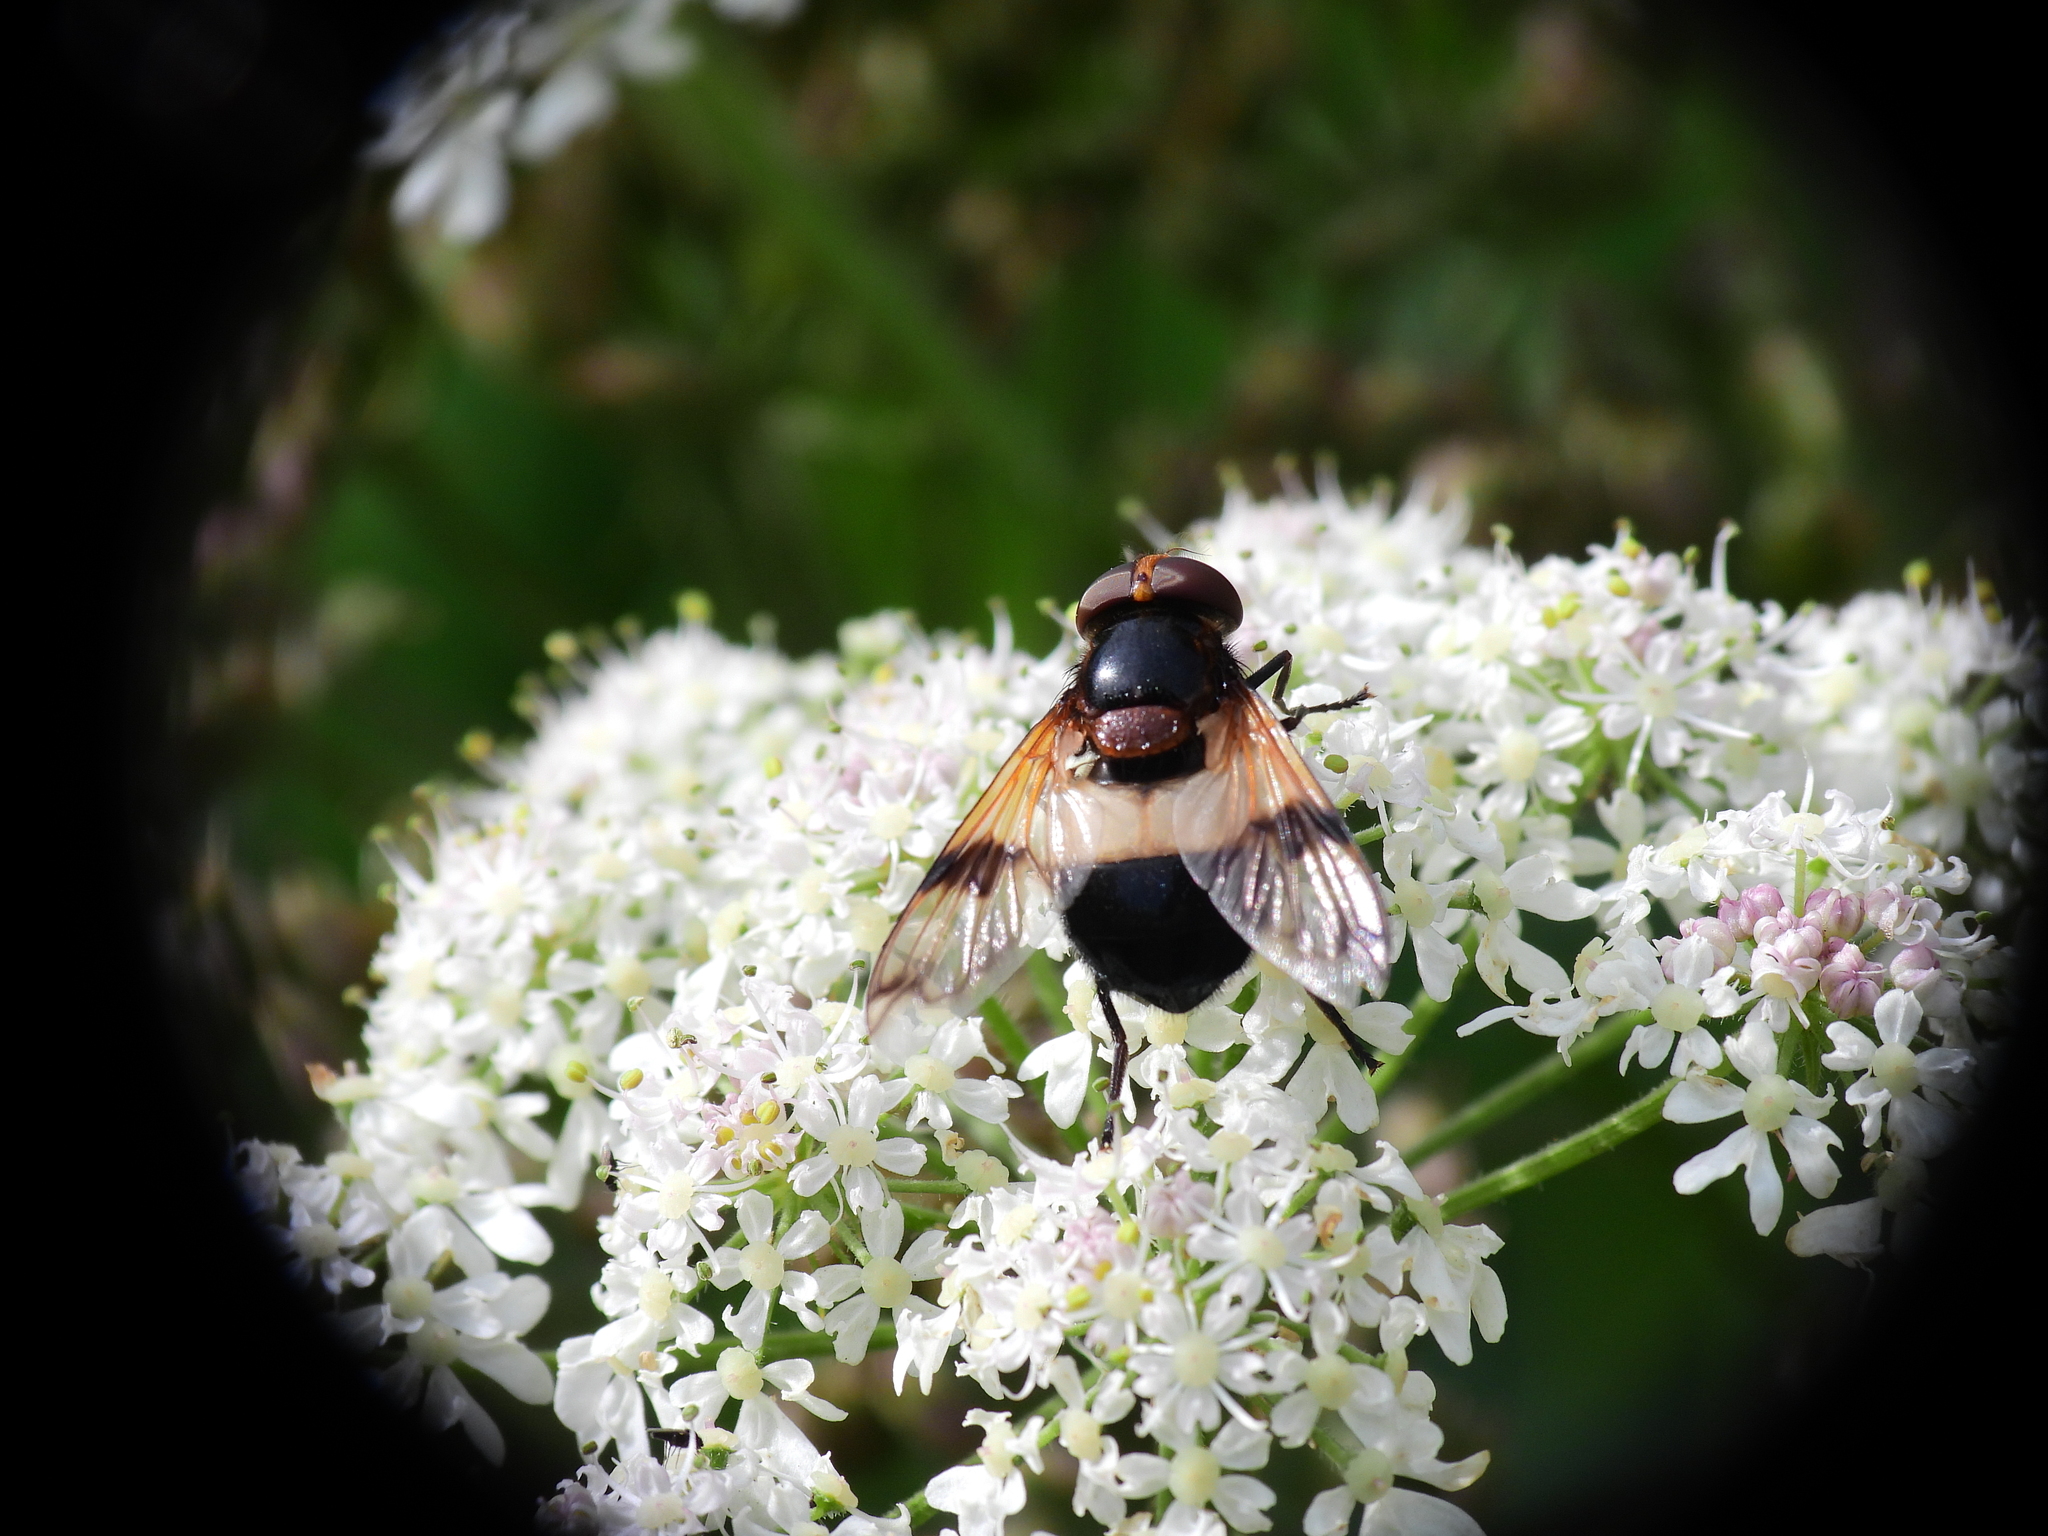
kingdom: Animalia
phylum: Arthropoda
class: Insecta
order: Diptera
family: Syrphidae
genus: Volucella
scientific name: Volucella pellucens
